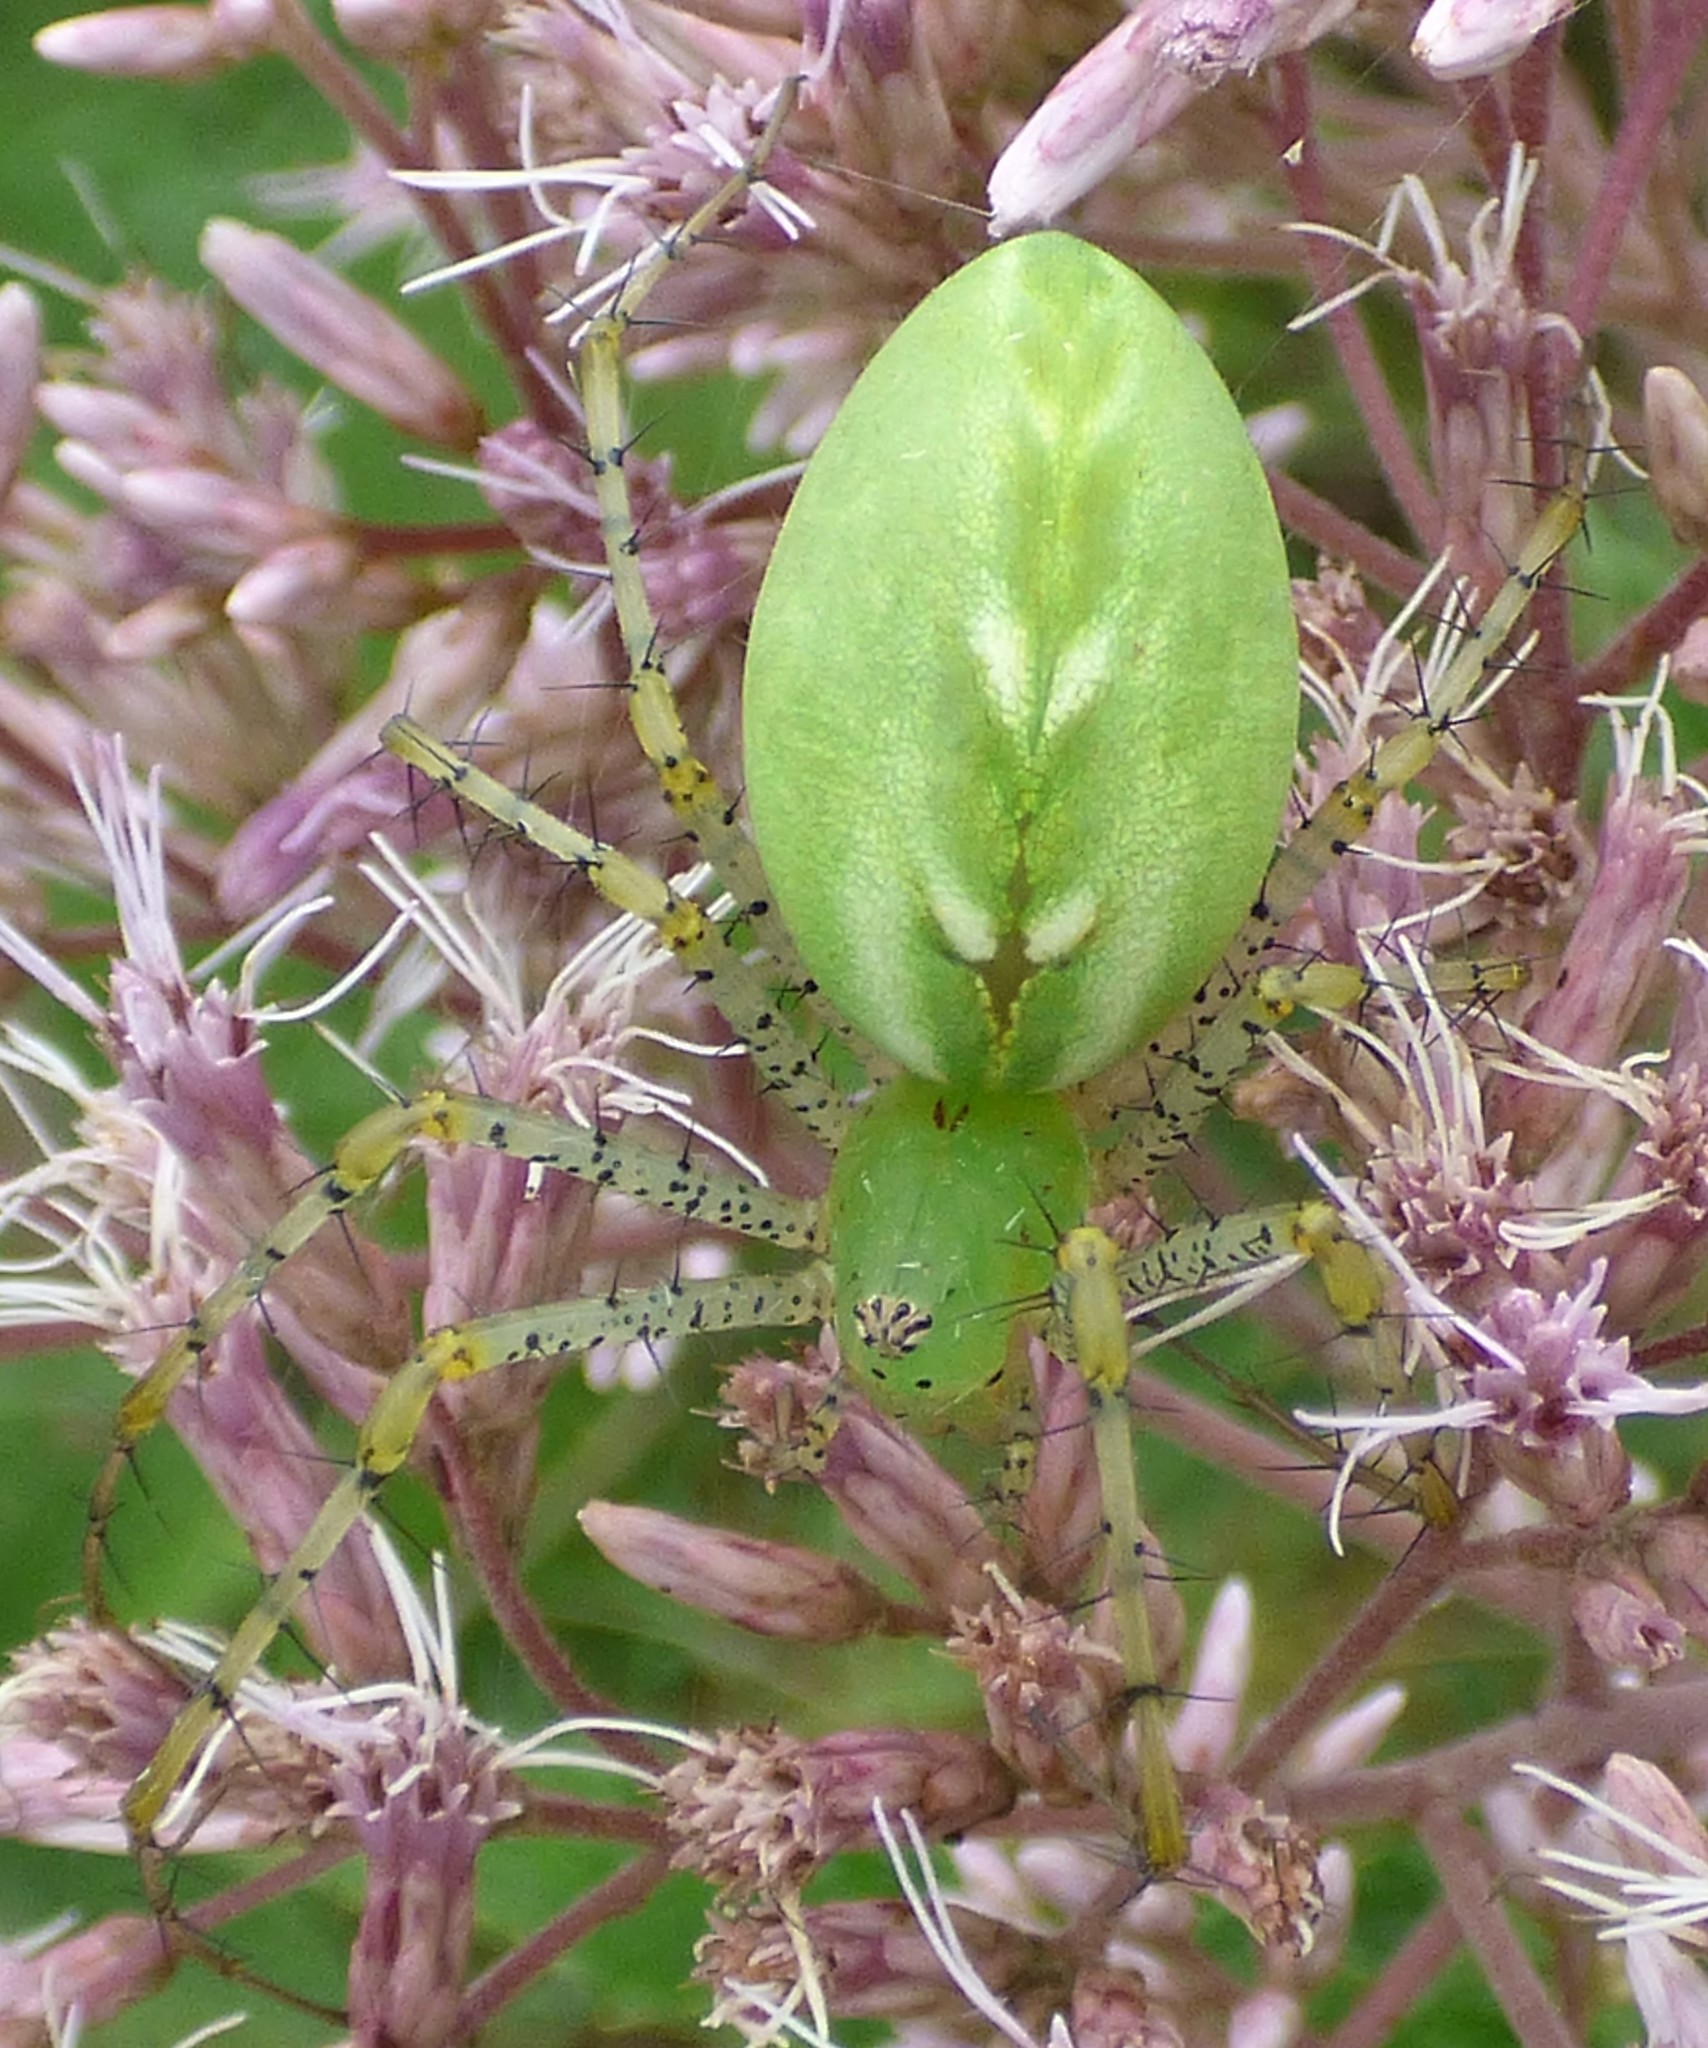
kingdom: Animalia
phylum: Arthropoda
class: Arachnida
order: Araneae
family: Oxyopidae
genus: Peucetia
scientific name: Peucetia viridans
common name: Lynx spiders
